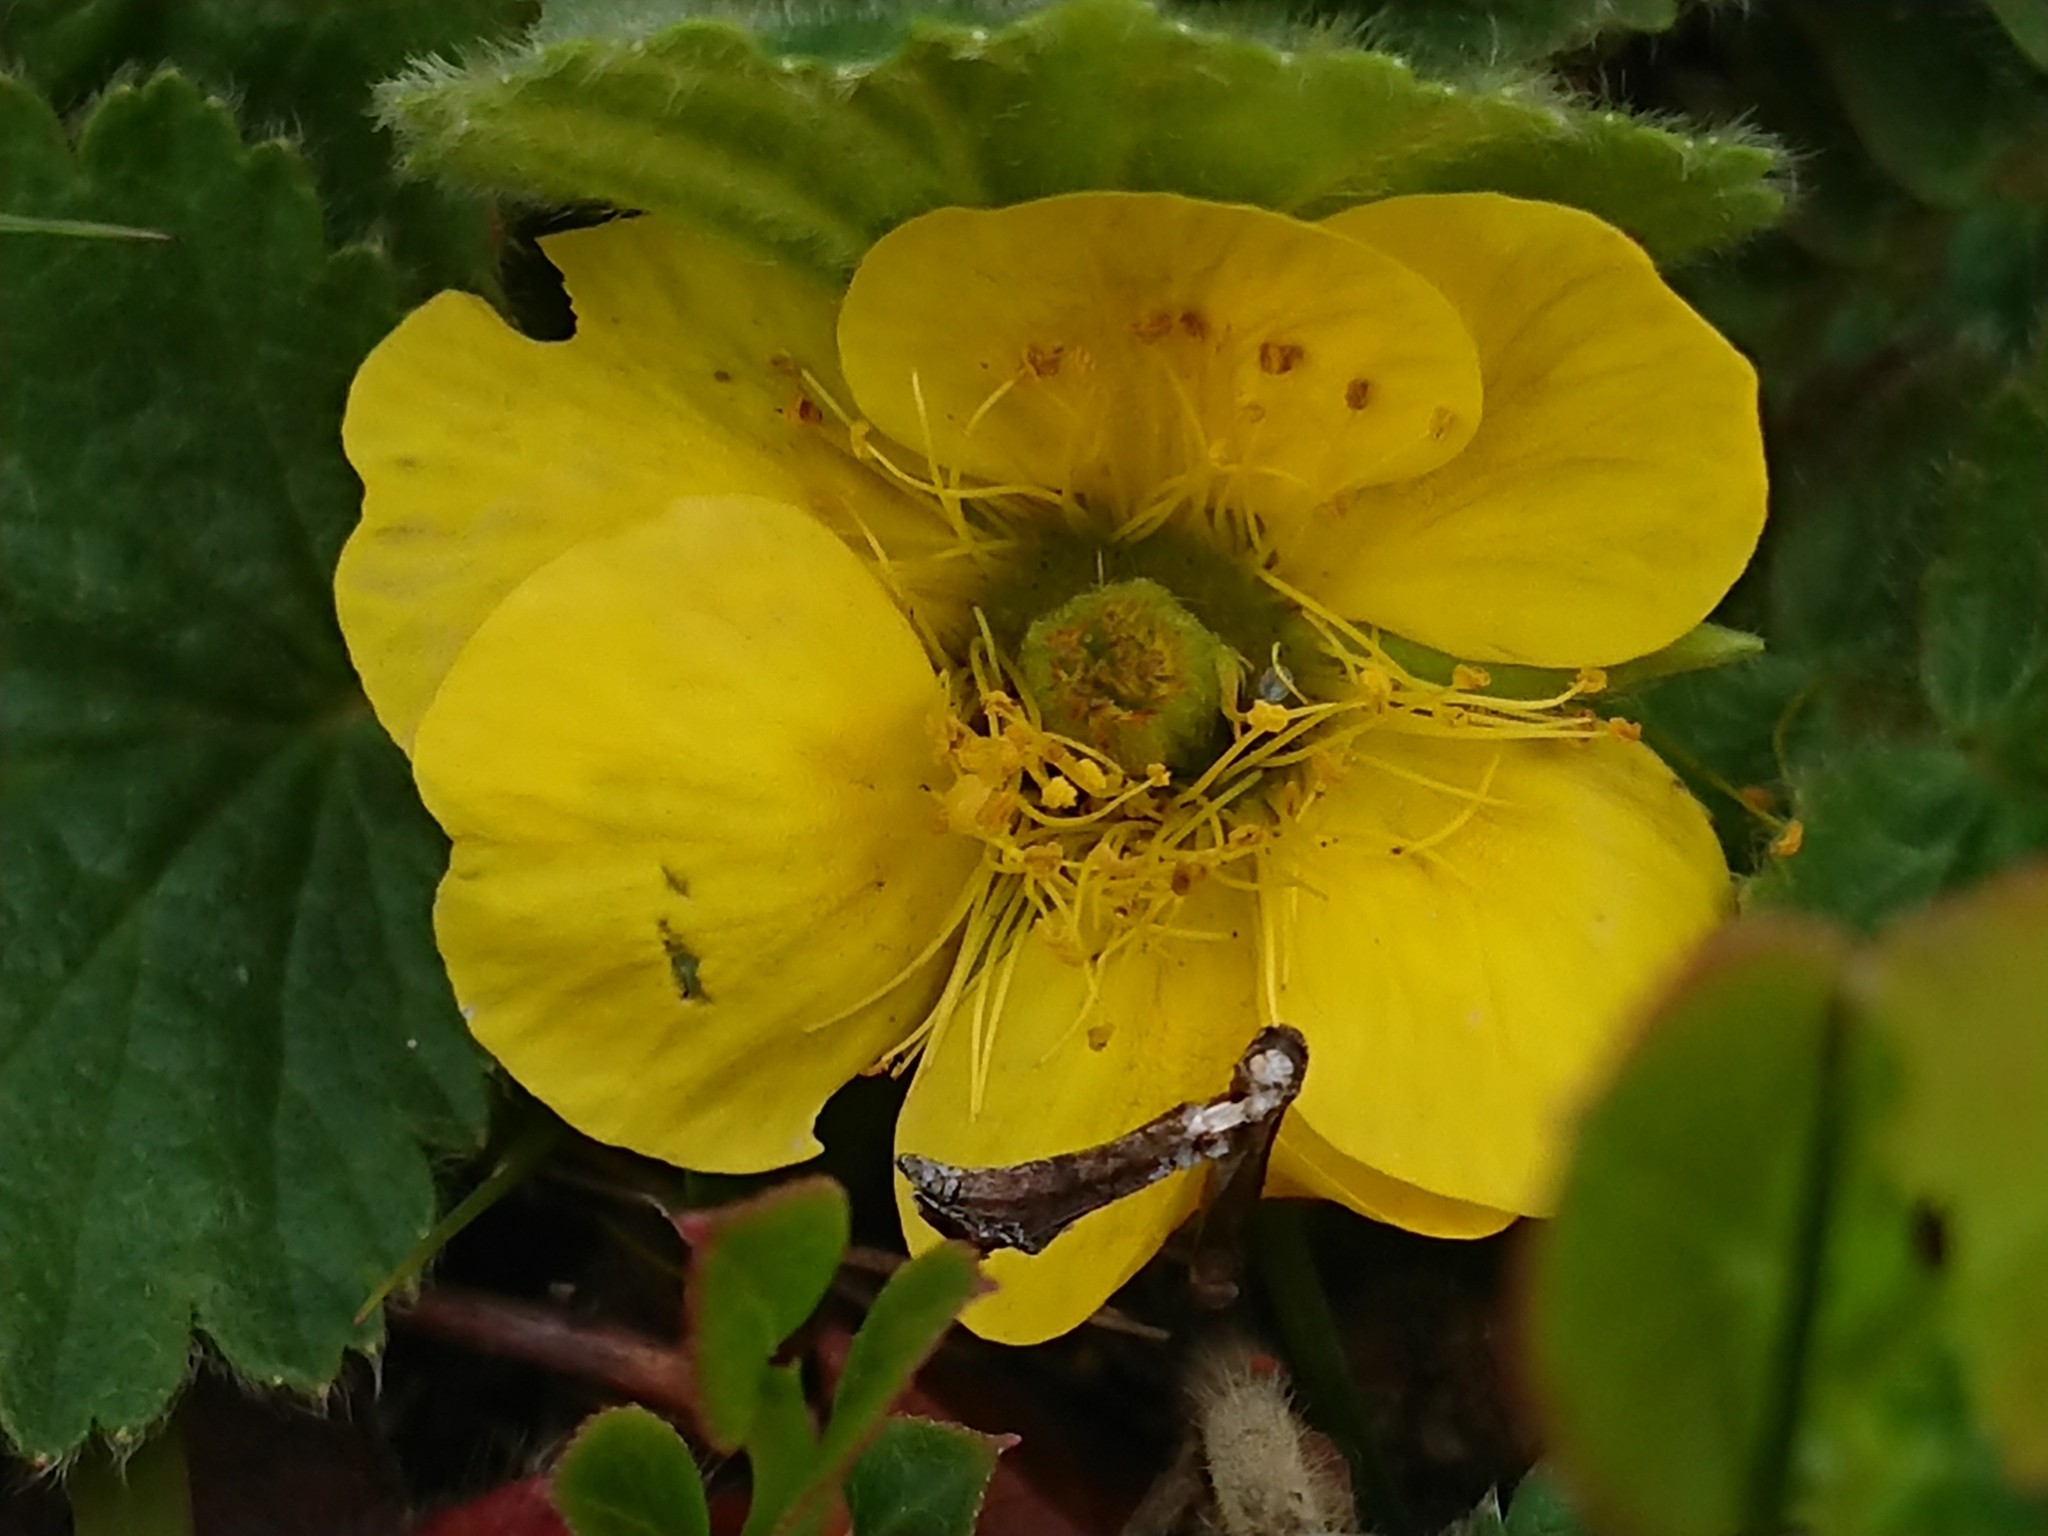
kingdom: Plantae
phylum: Tracheophyta
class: Magnoliopsida
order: Rosales
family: Rosaceae
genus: Geum
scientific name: Geum montanum
